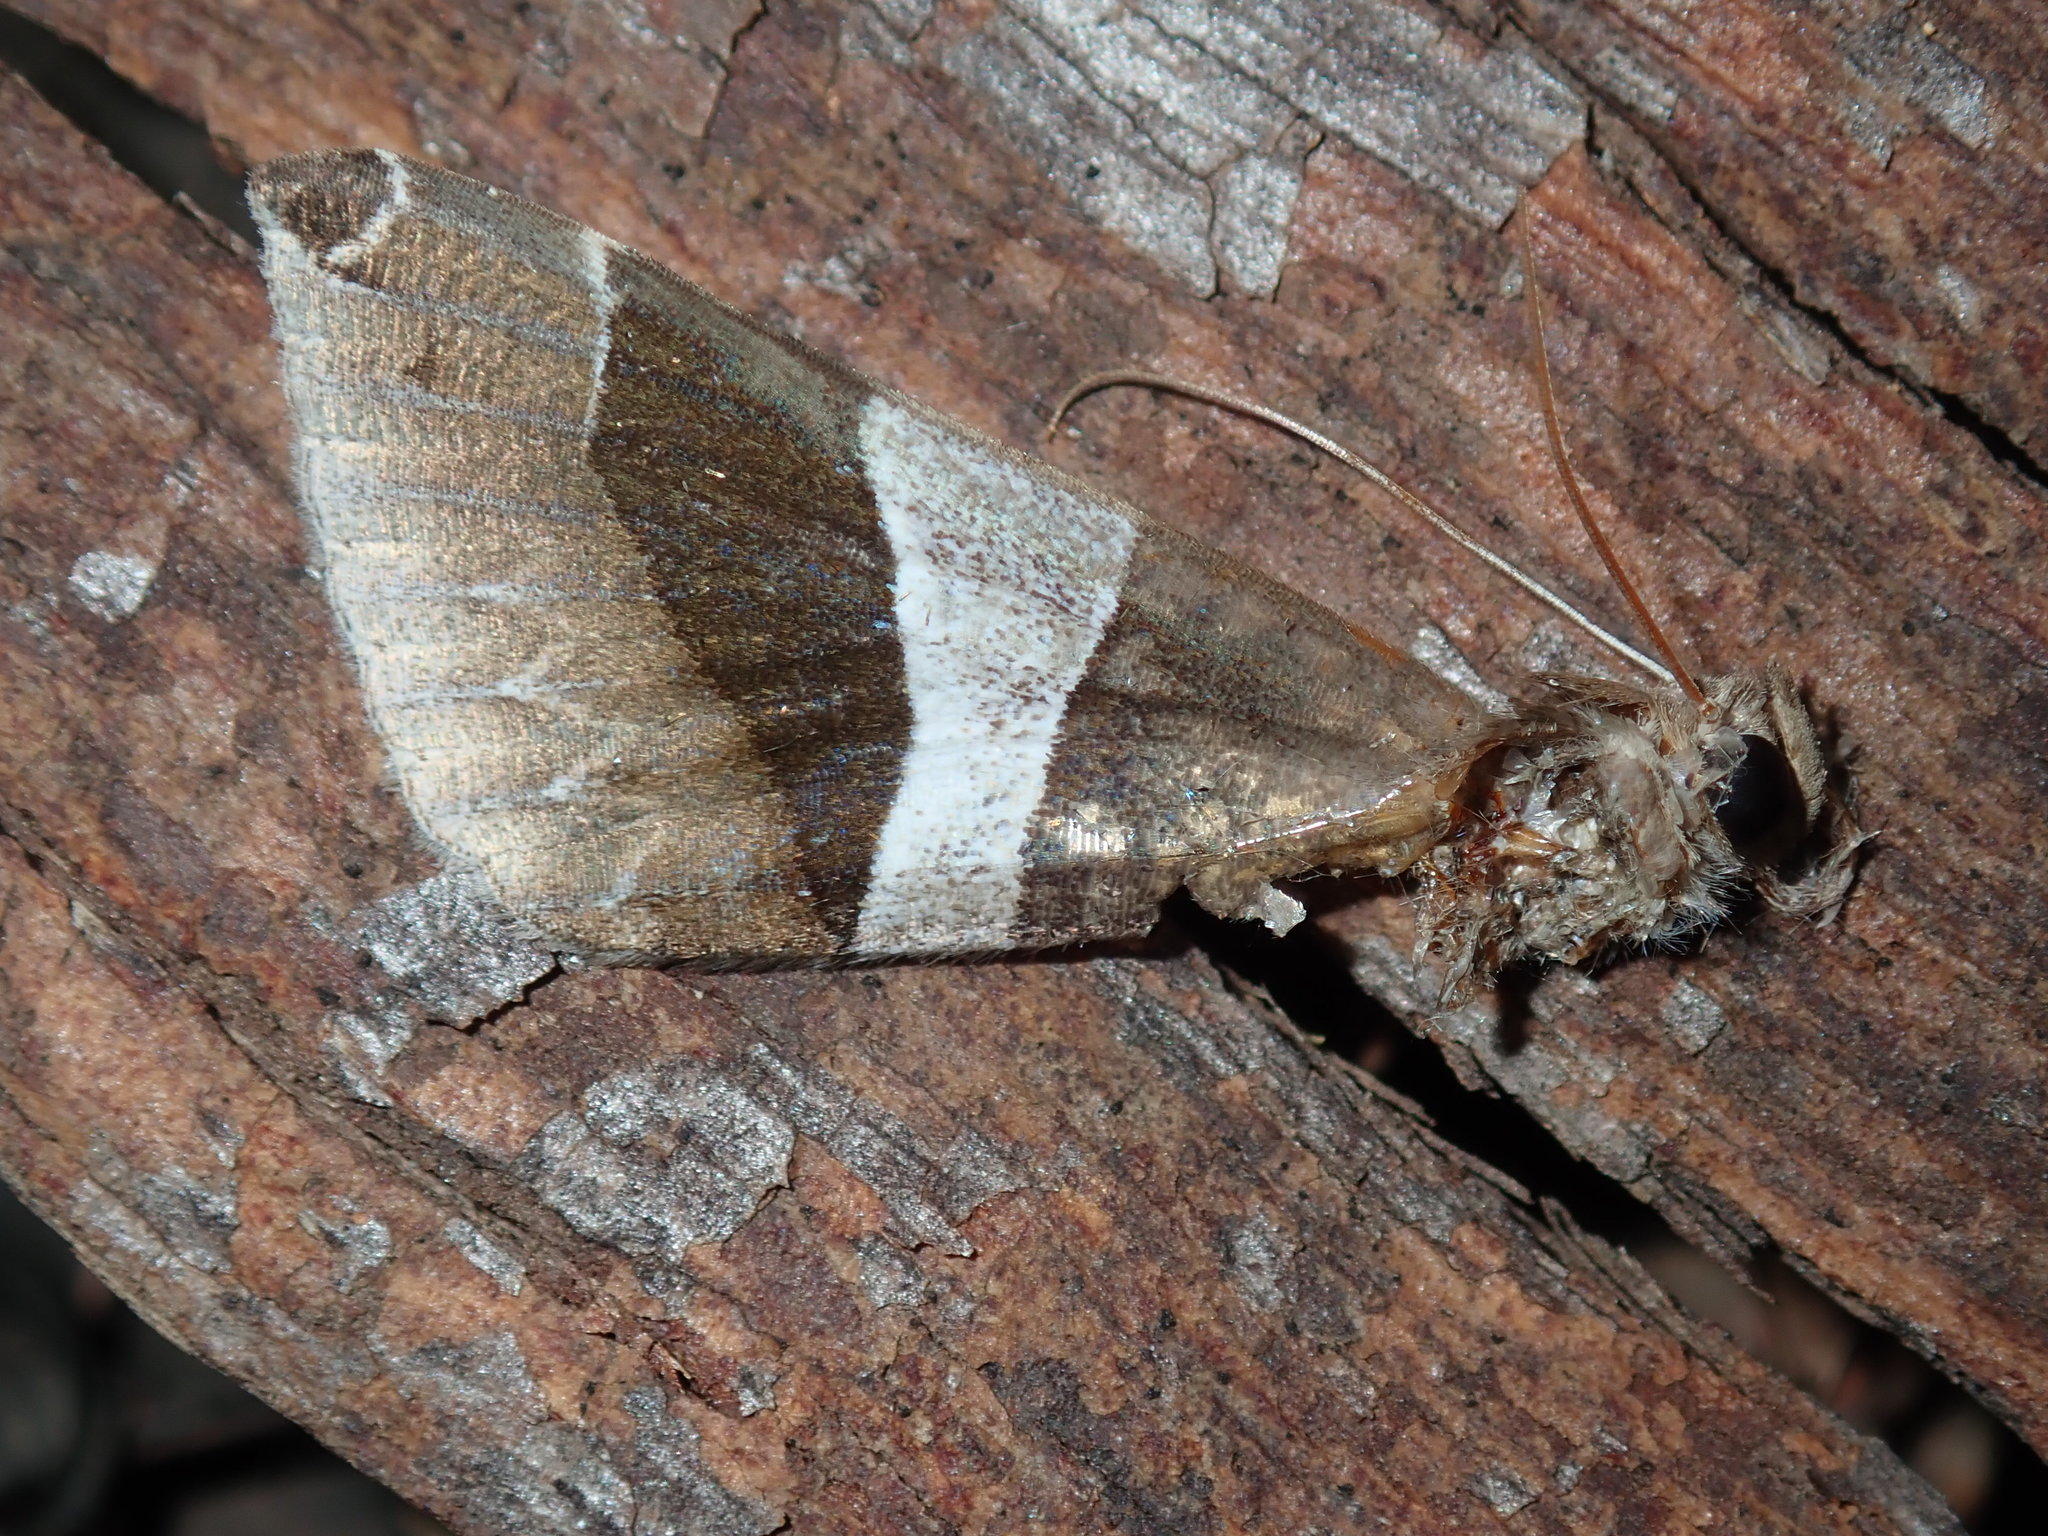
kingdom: Animalia
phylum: Arthropoda
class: Insecta
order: Lepidoptera
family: Erebidae
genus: Dysgonia
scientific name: Dysgonia constricta
